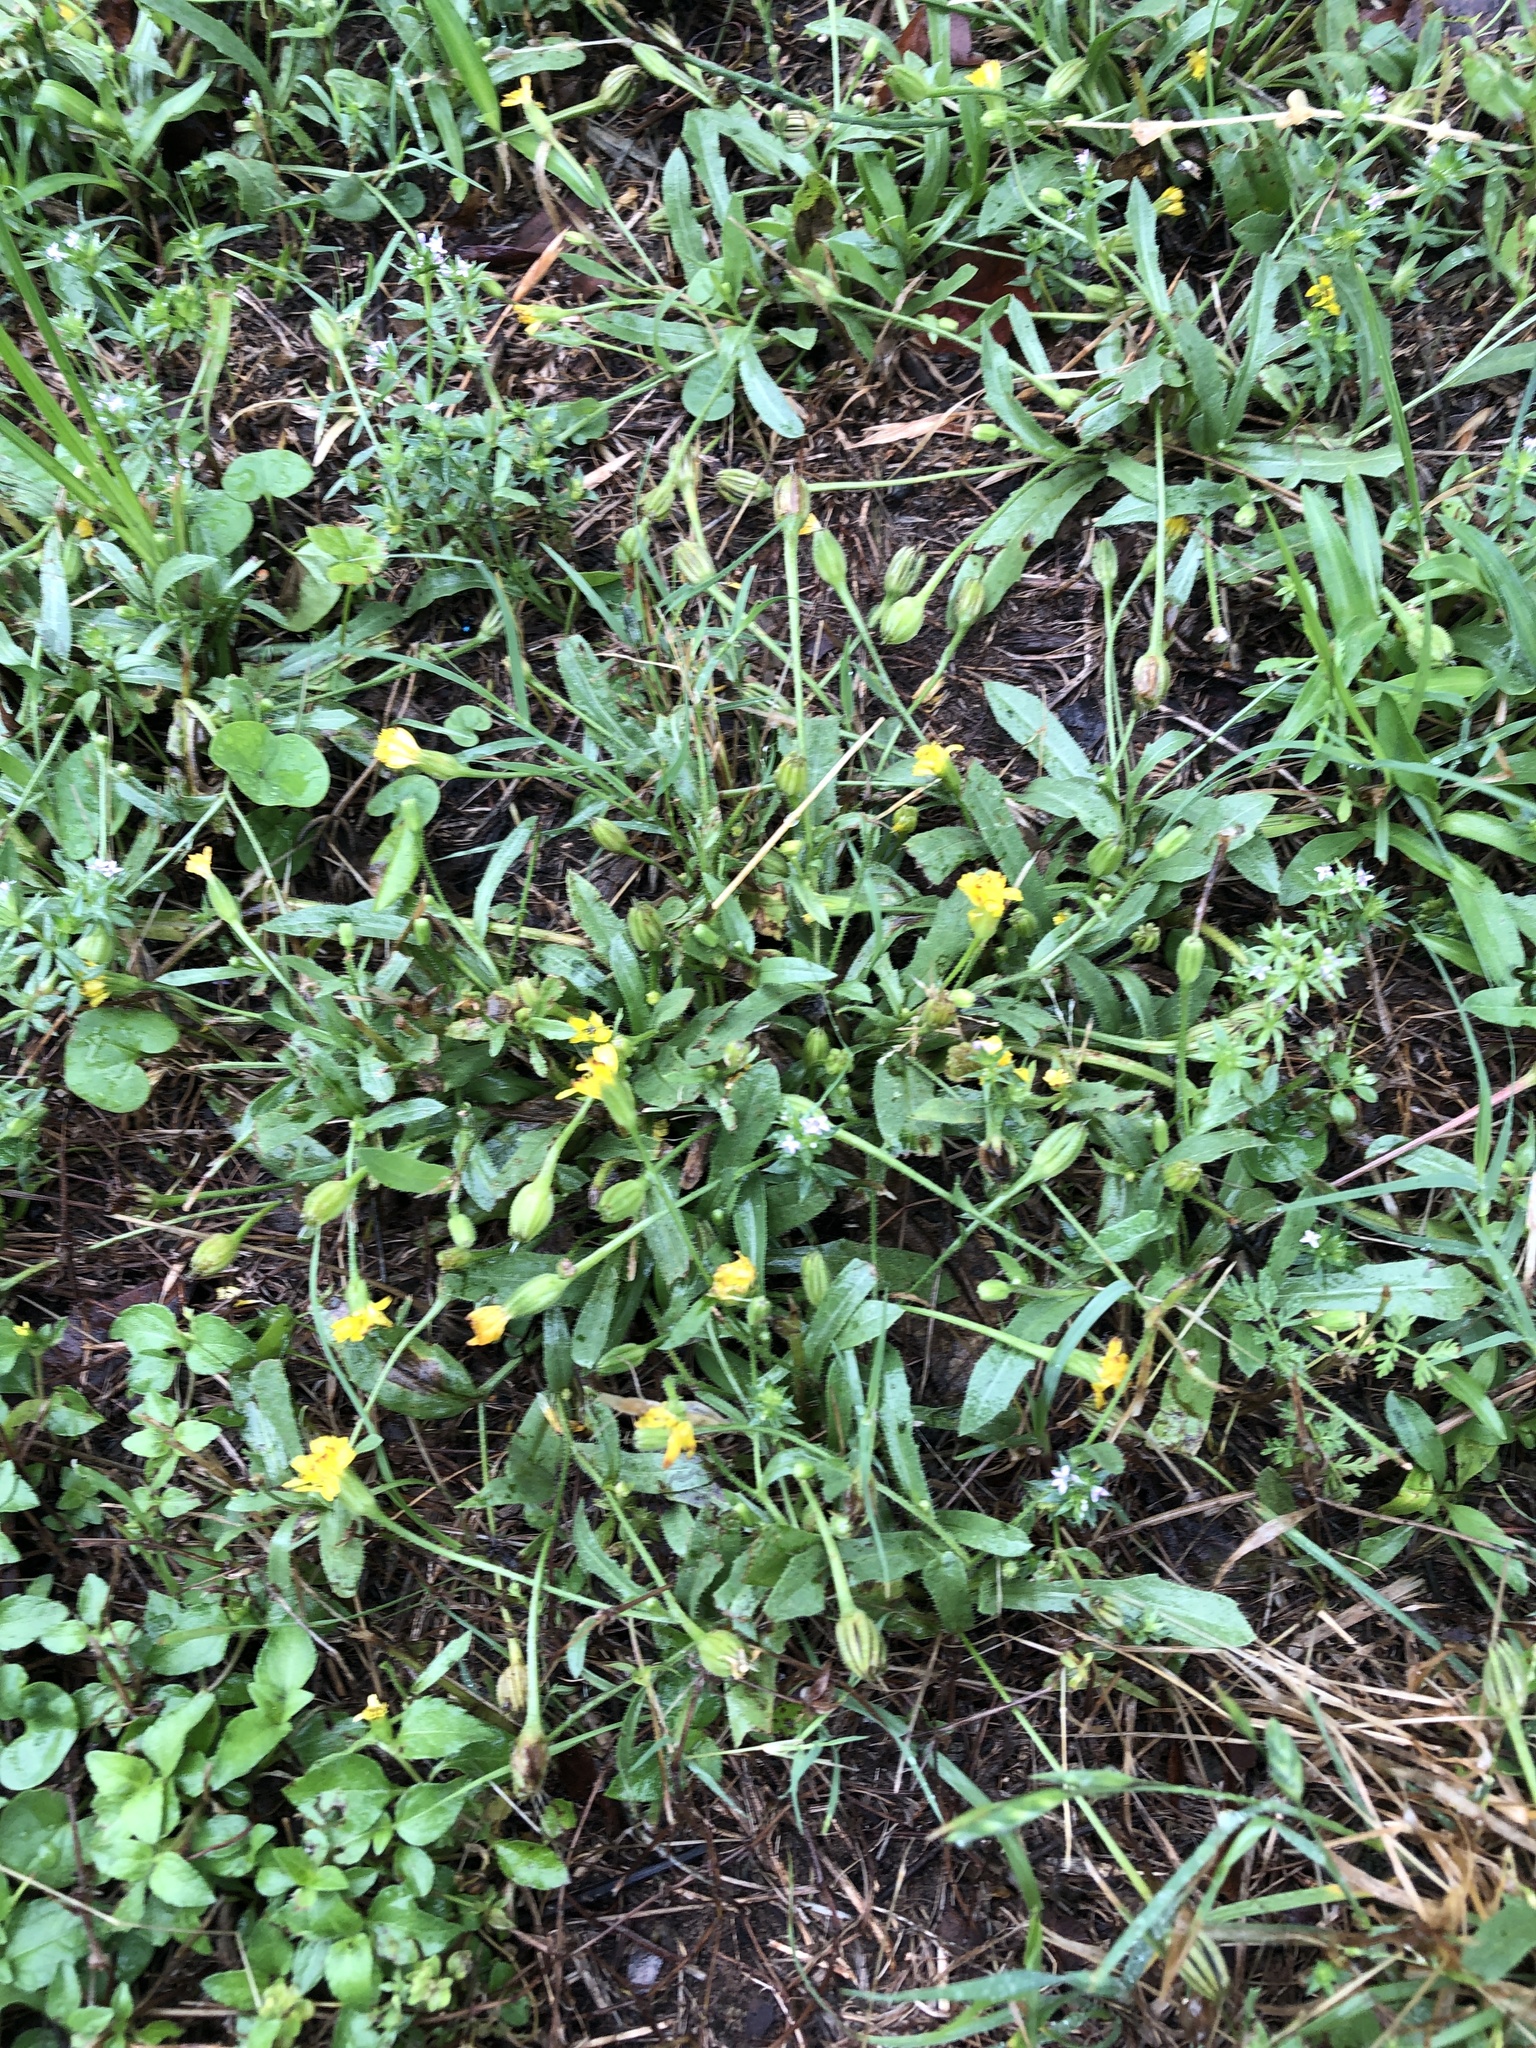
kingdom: Plantae
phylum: Tracheophyta
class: Magnoliopsida
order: Asterales
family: Asteraceae
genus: Hedypnois
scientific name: Hedypnois rhagadioloides
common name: Cretan weed
